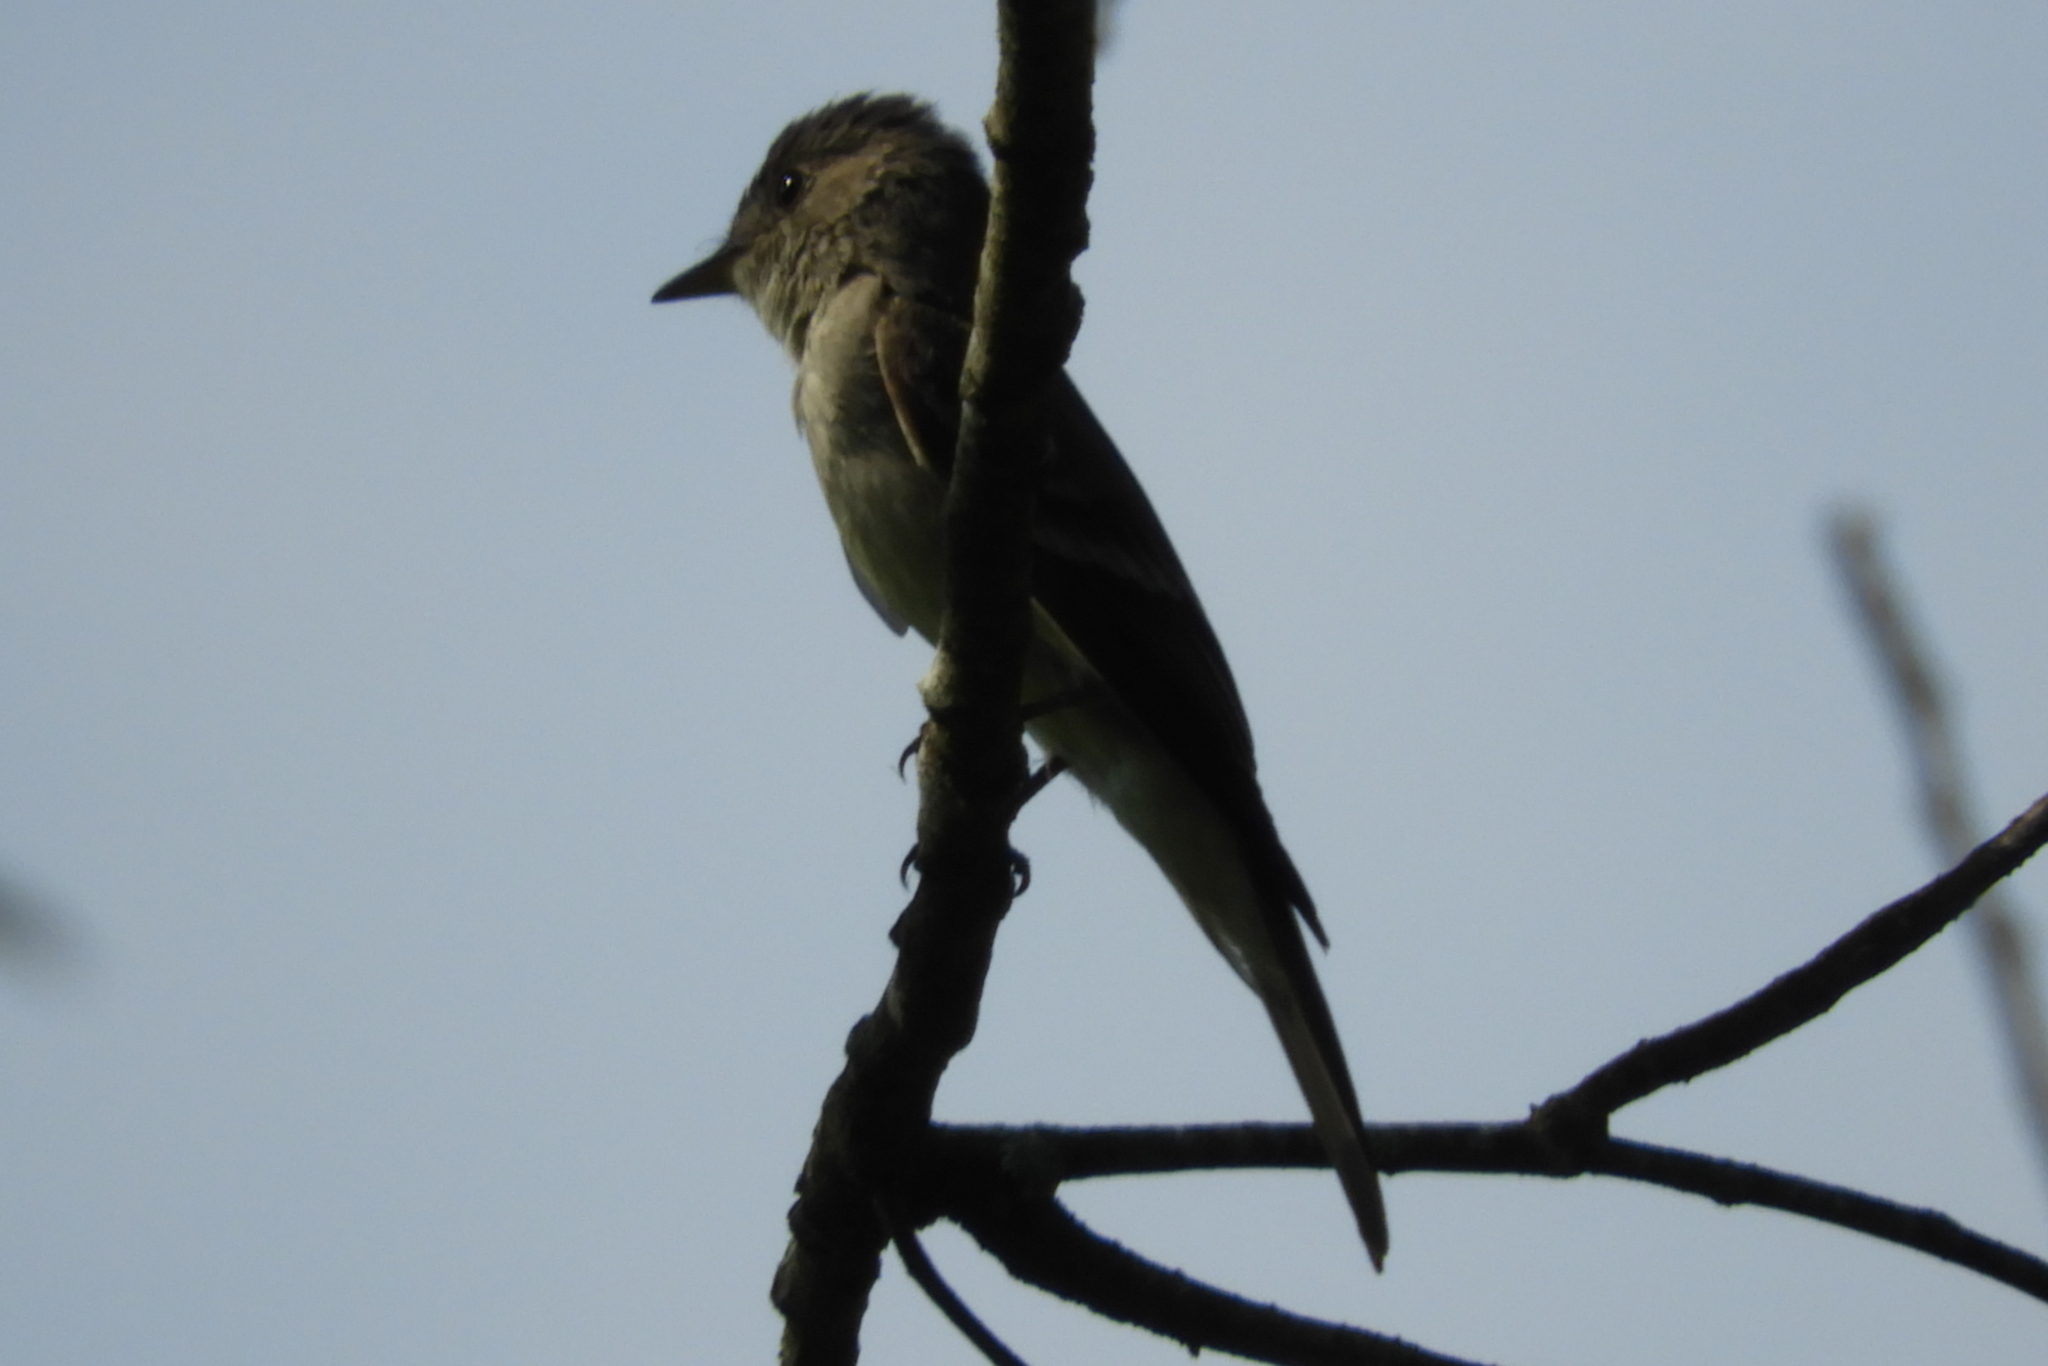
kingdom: Animalia
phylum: Chordata
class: Aves
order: Passeriformes
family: Tyrannidae
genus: Contopus
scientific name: Contopus virens
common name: Eastern wood-pewee
